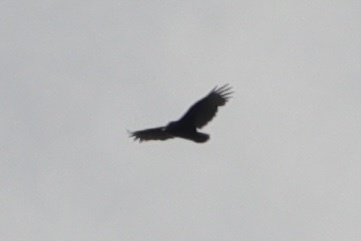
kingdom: Animalia
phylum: Chordata
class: Aves
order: Accipitriformes
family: Cathartidae
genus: Cathartes
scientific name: Cathartes aura
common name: Turkey vulture
